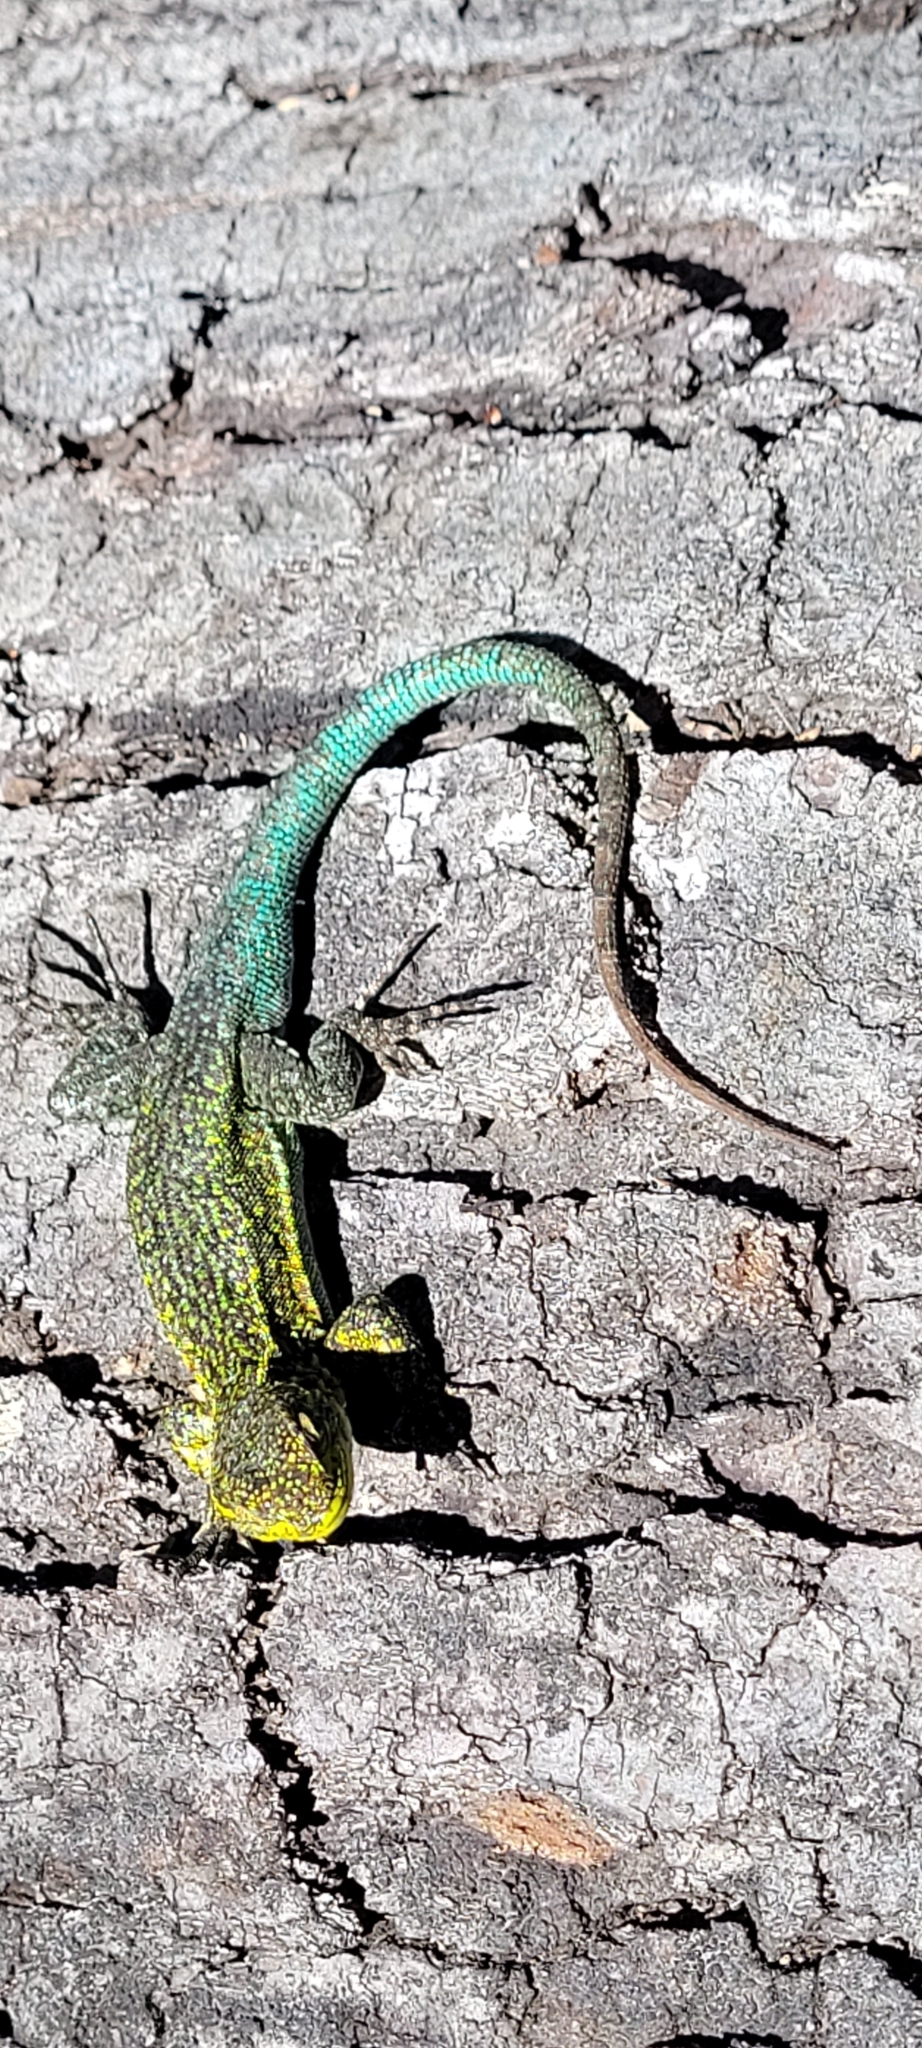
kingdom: Animalia
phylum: Chordata
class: Squamata
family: Liolaemidae
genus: Liolaemus
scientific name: Liolaemus tenuis
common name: Thin tree iguana
